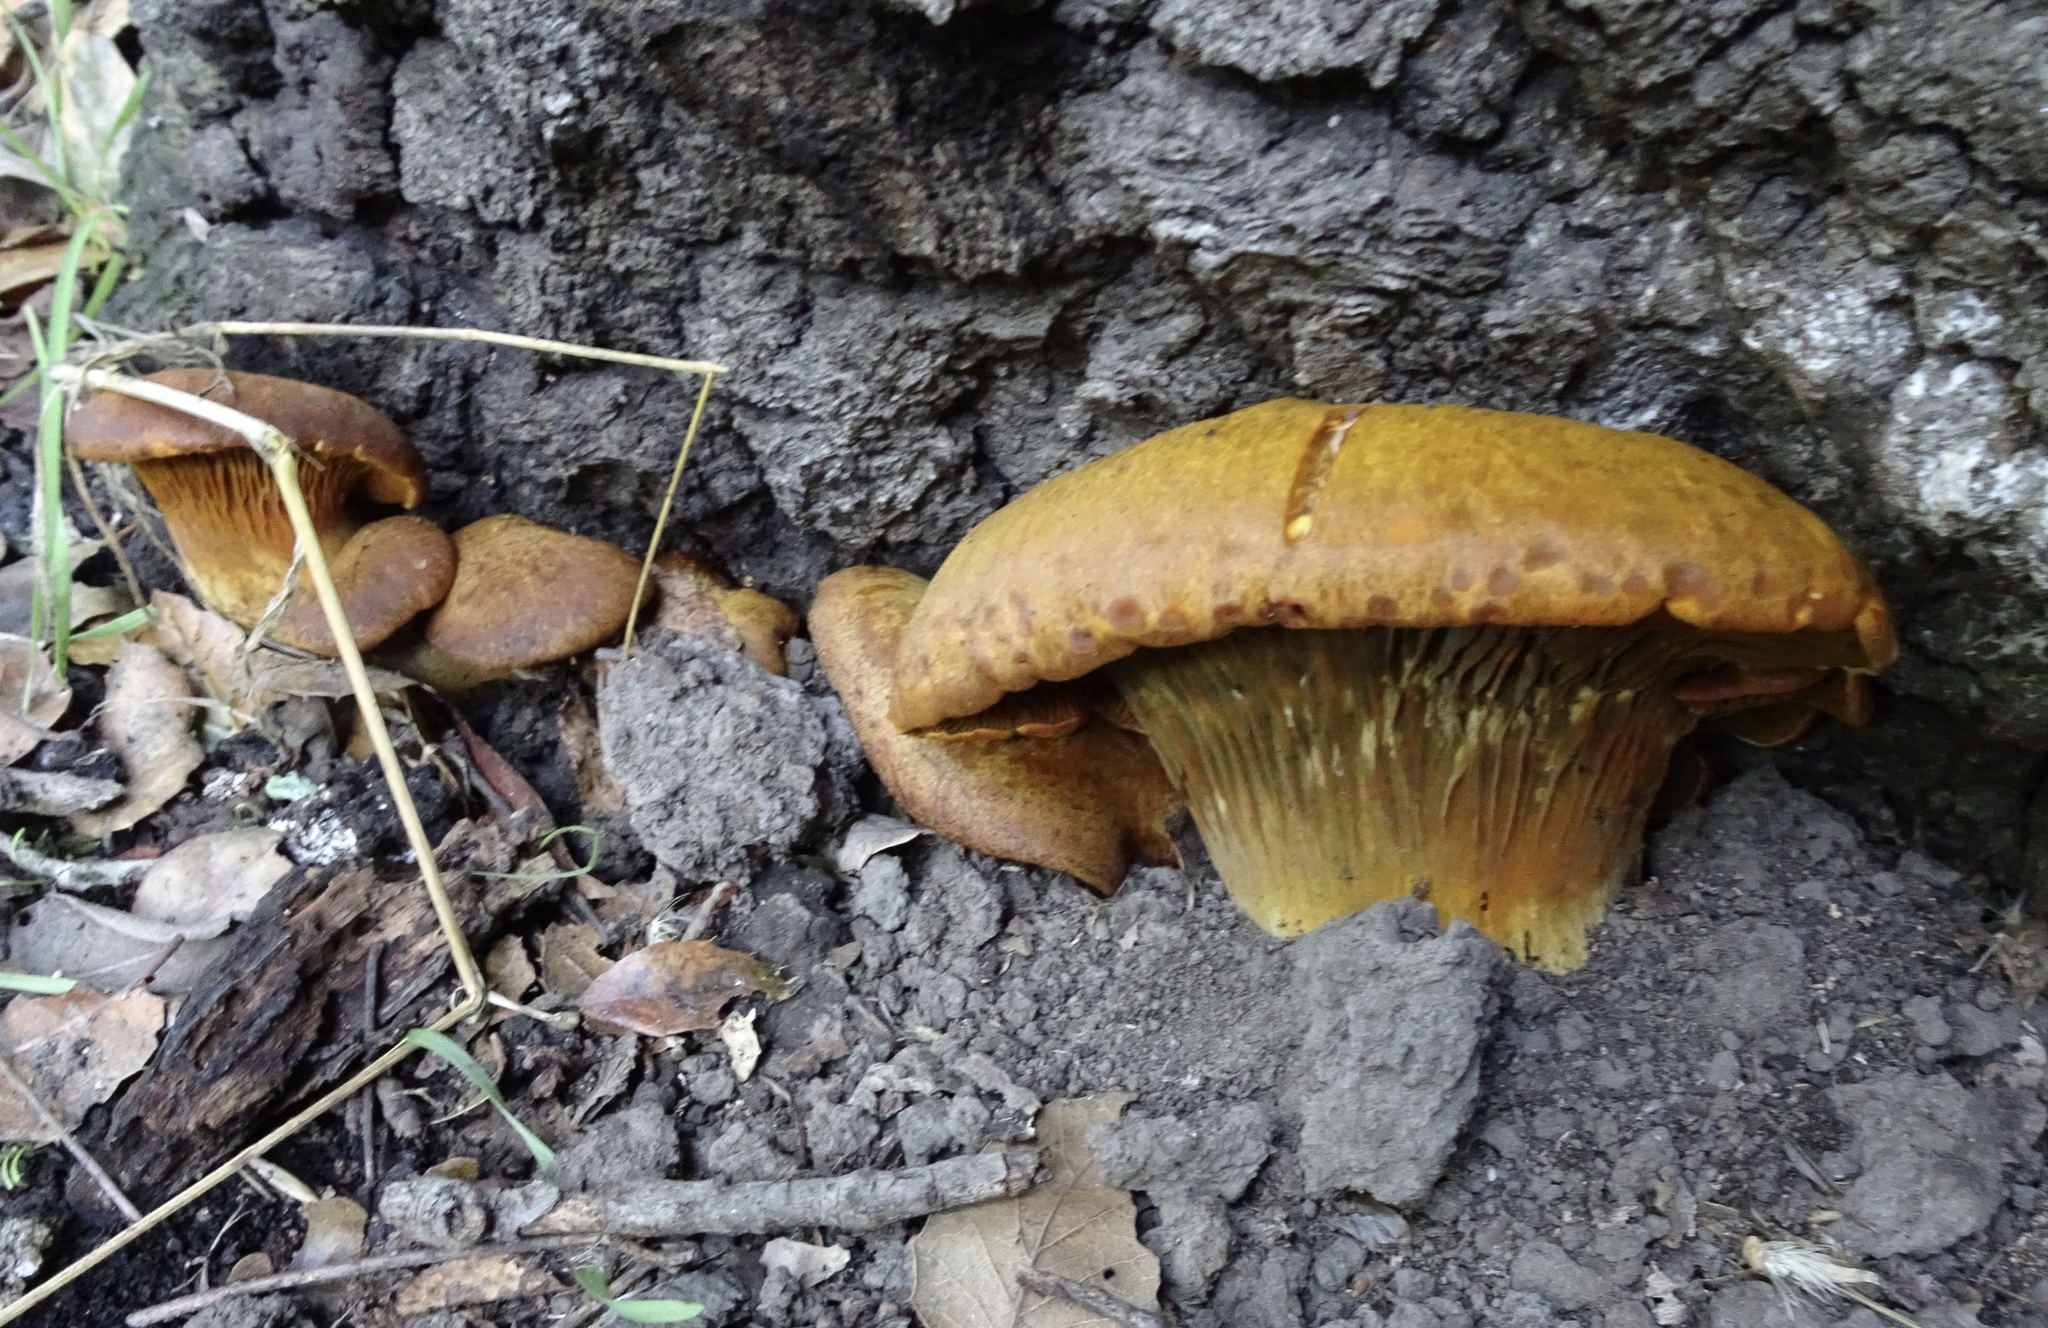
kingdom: Fungi
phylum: Basidiomycota
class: Agaricomycetes
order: Agaricales
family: Omphalotaceae
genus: Omphalotus
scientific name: Omphalotus olivascens
